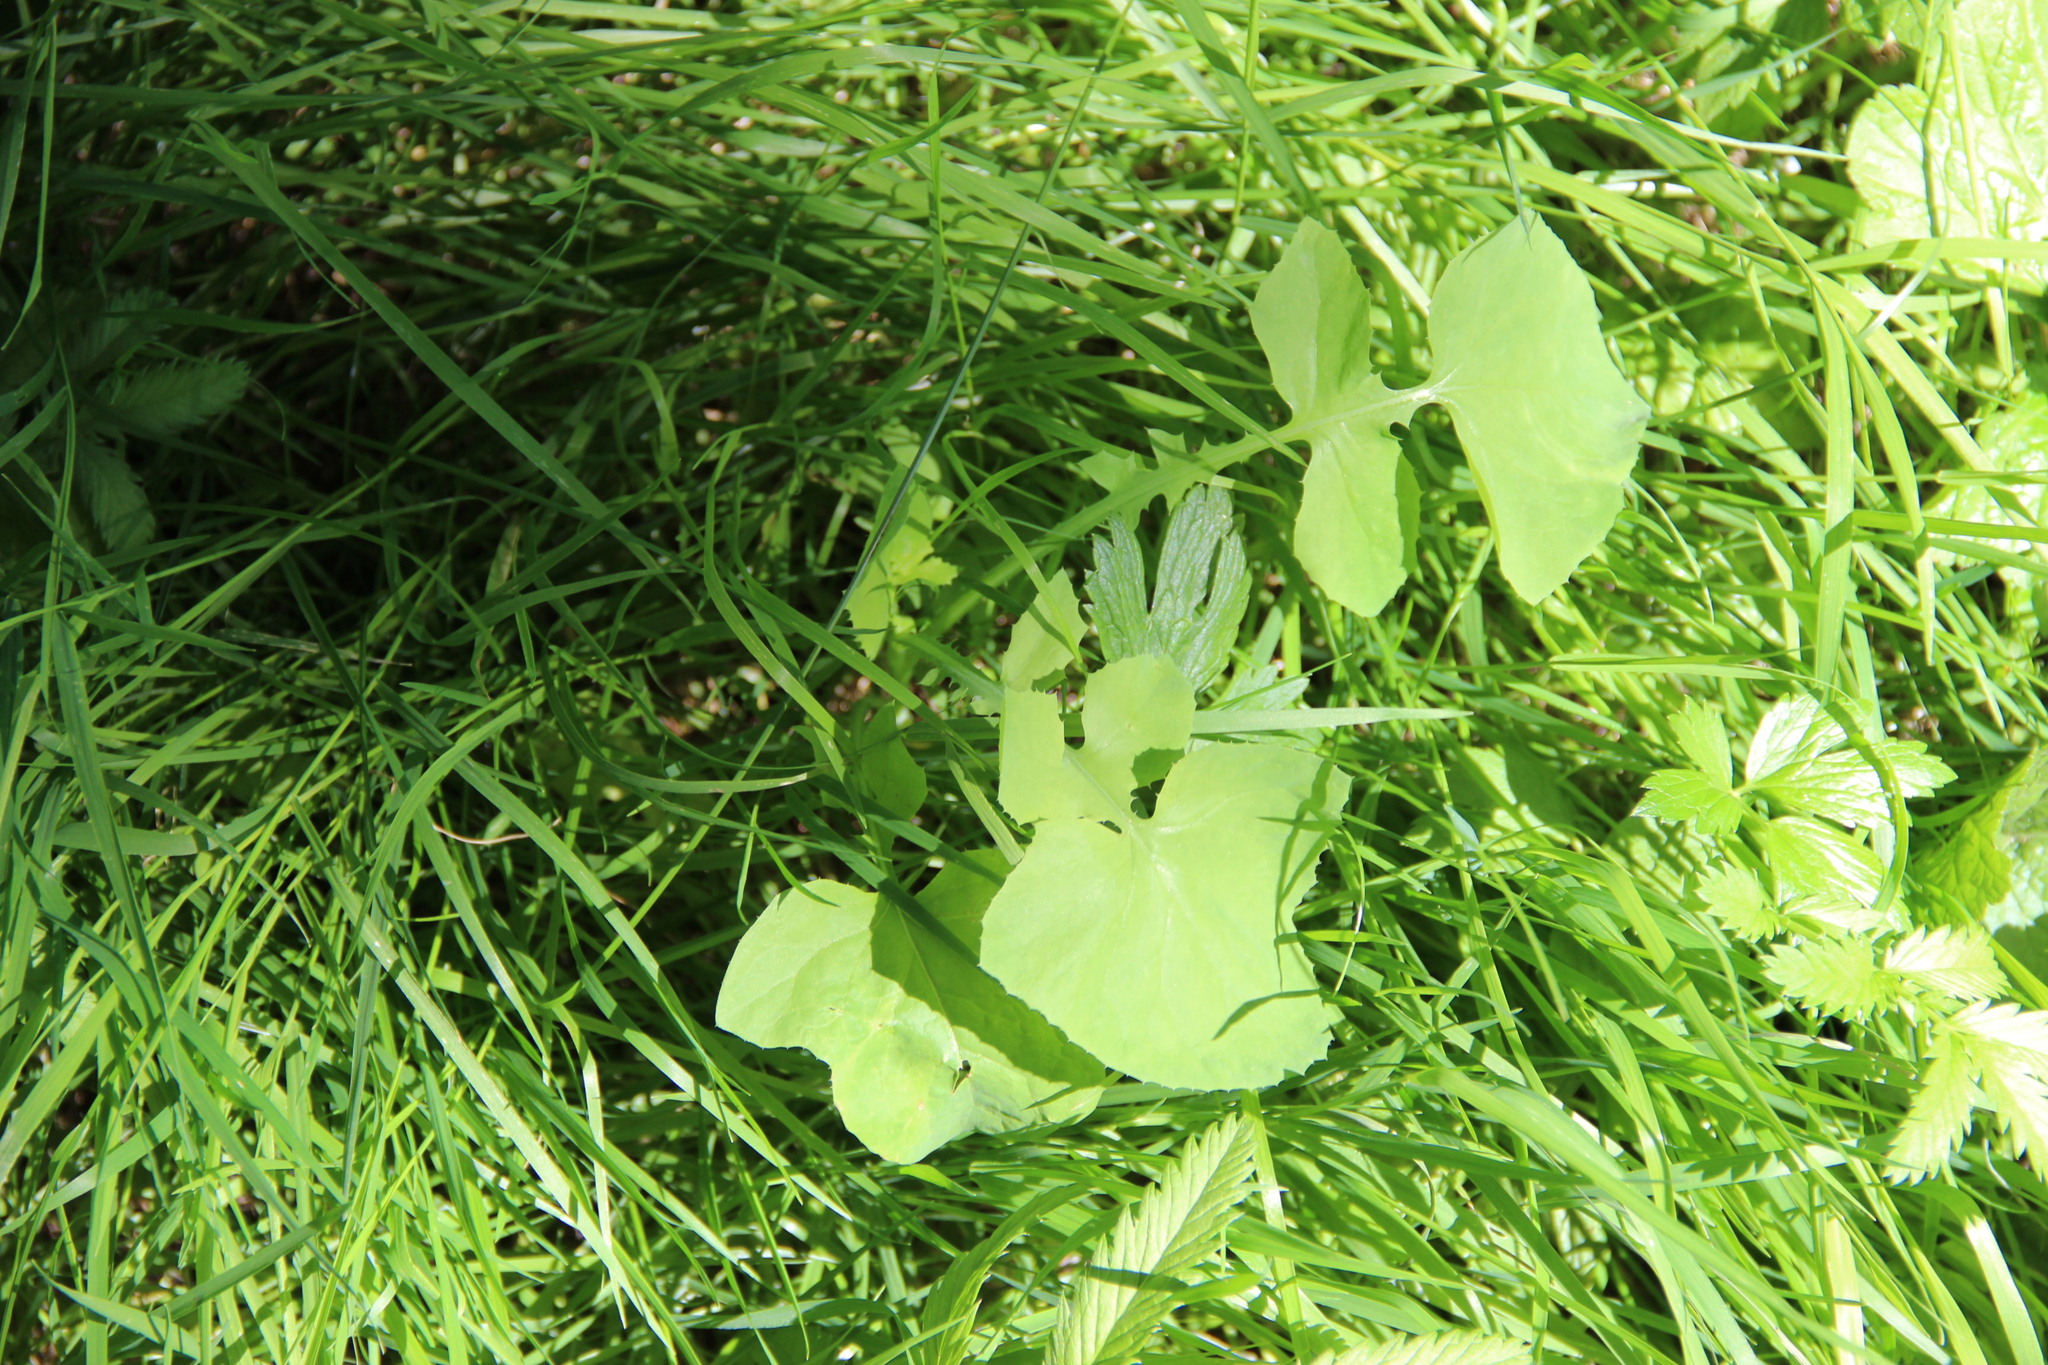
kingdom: Plantae
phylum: Tracheophyta
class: Magnoliopsida
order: Asterales
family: Asteraceae
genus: Sonchus
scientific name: Sonchus oleraceus
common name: Common sowthistle
